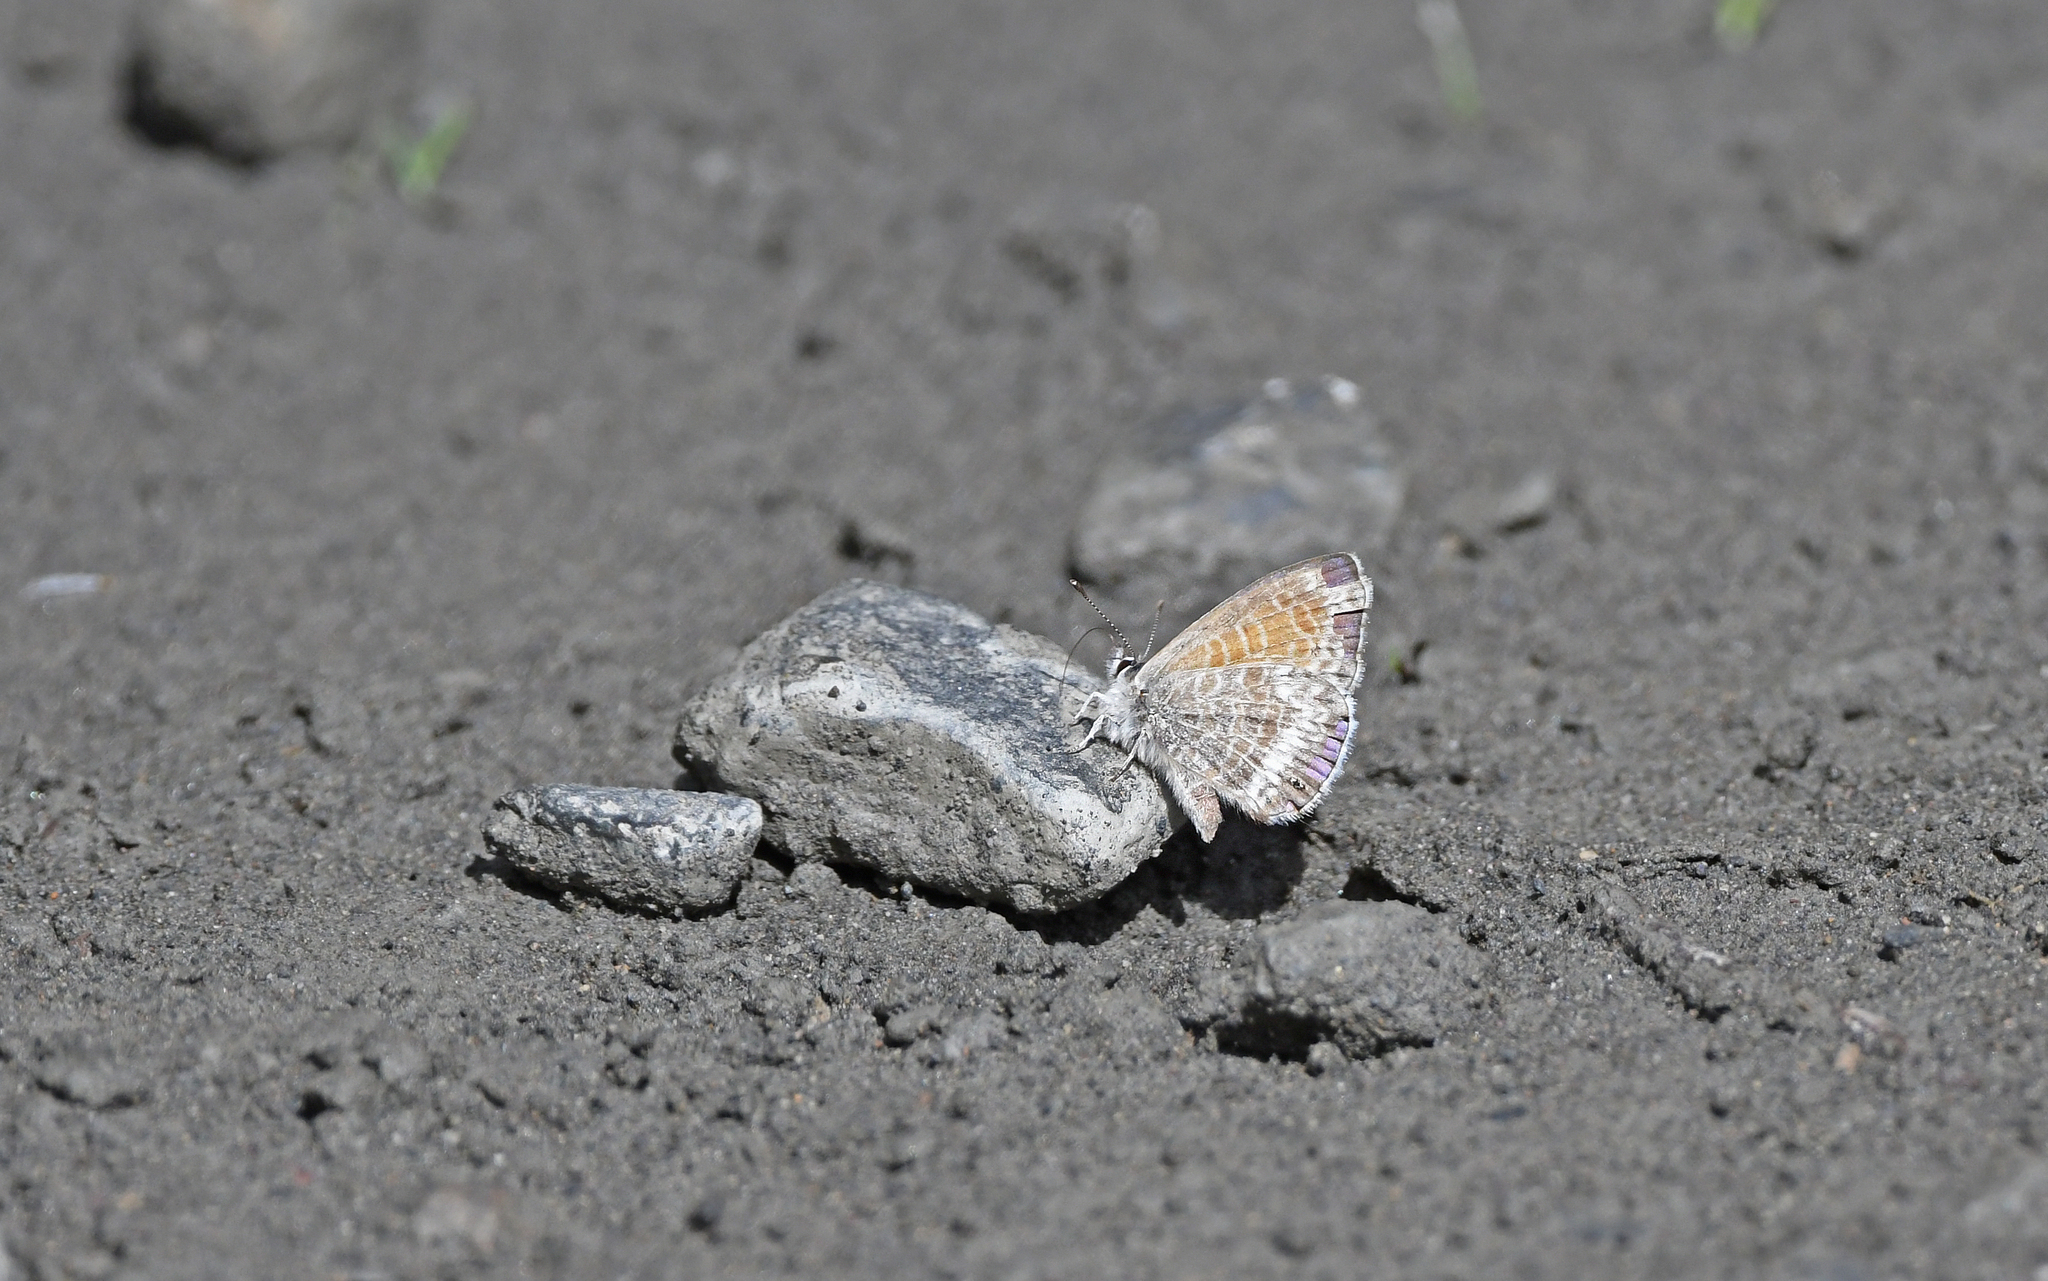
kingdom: Animalia
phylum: Arthropoda
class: Insecta
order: Lepidoptera
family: Lycaenidae
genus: Leptotes
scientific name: Leptotes callanga
